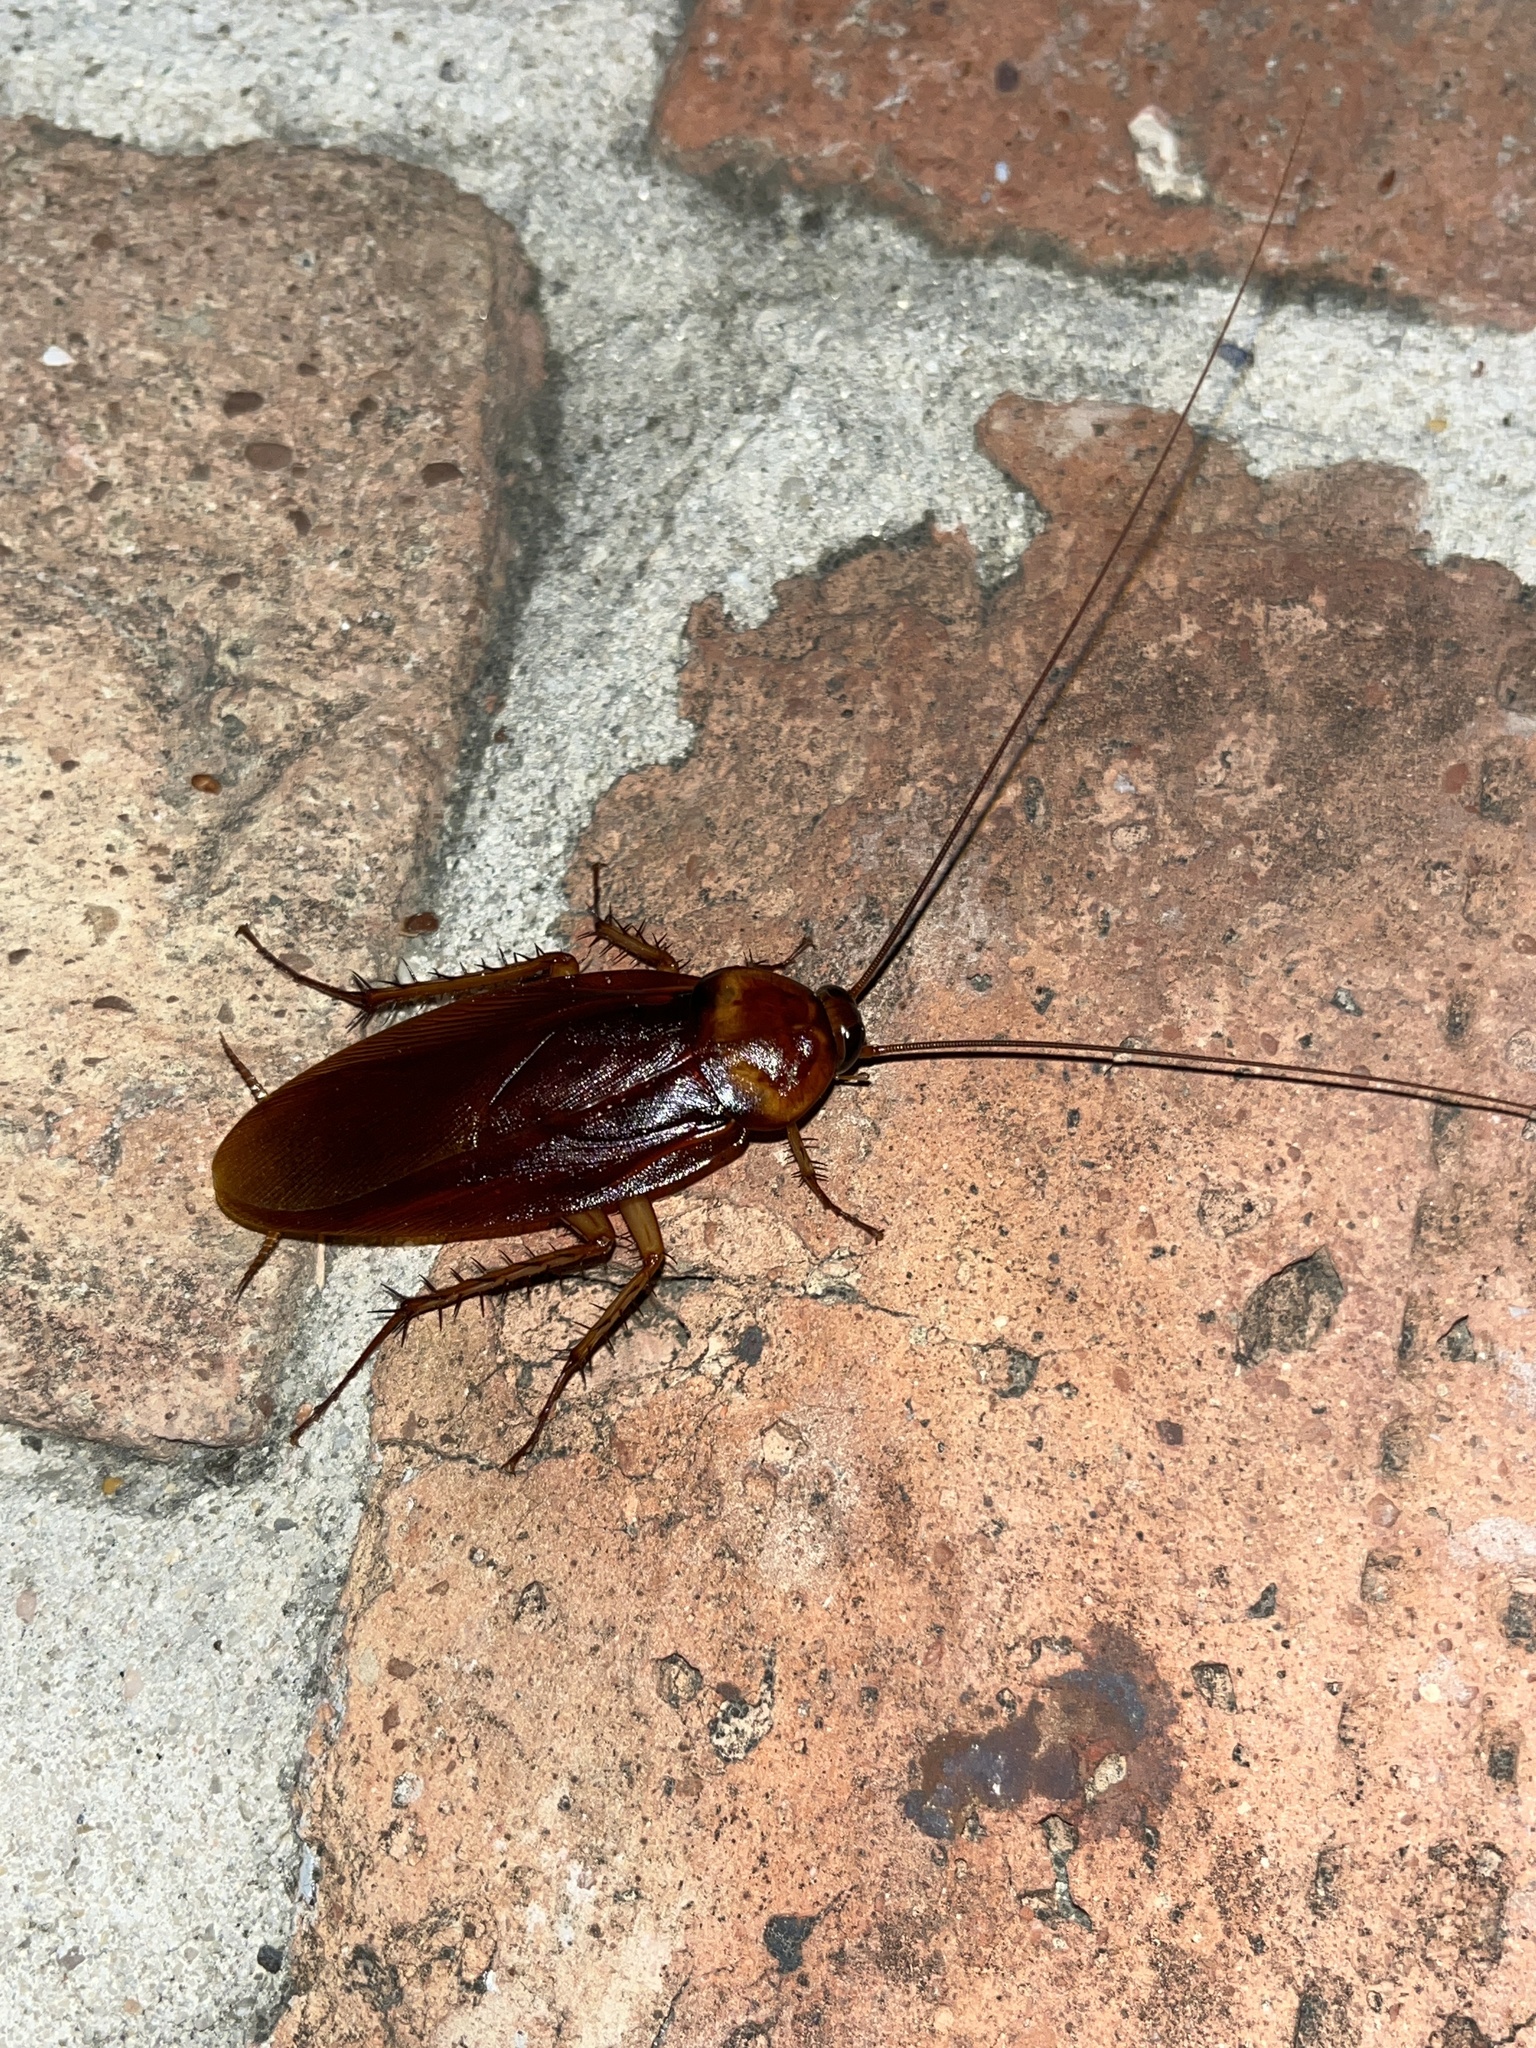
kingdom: Animalia
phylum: Arthropoda
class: Insecta
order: Blattodea
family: Blattidae
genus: Periplaneta
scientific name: Periplaneta americana
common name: American cockroach
